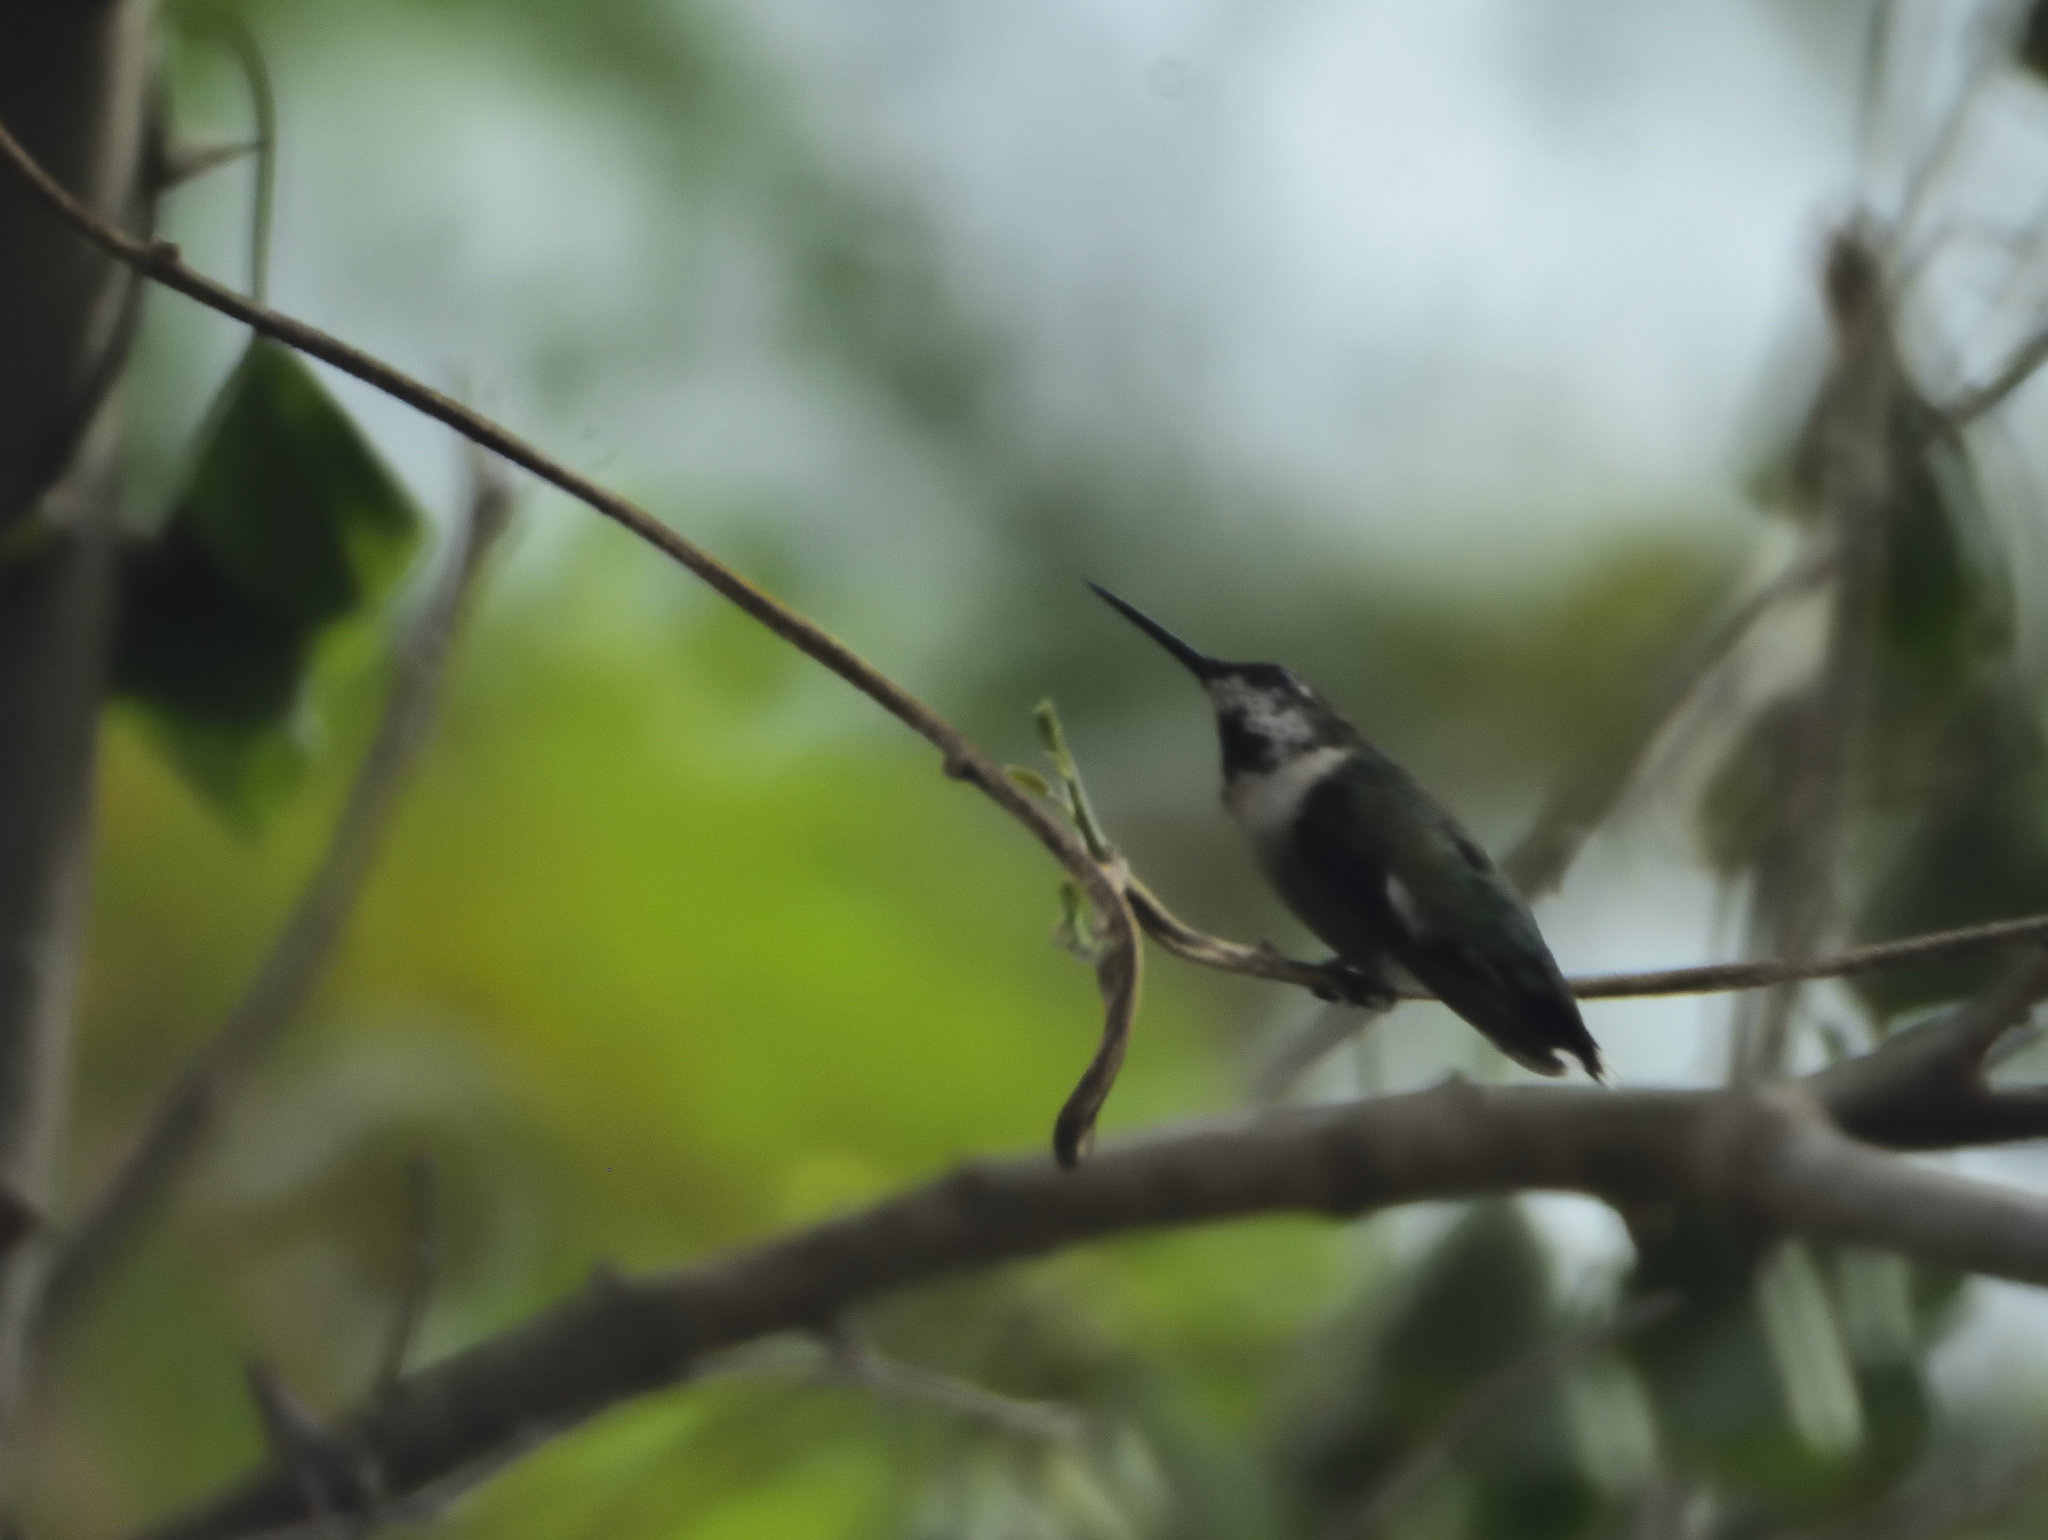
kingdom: Animalia
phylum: Chordata
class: Aves
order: Apodiformes
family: Trochilidae
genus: Archilochus
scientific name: Archilochus colubris
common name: Ruby-throated hummingbird
